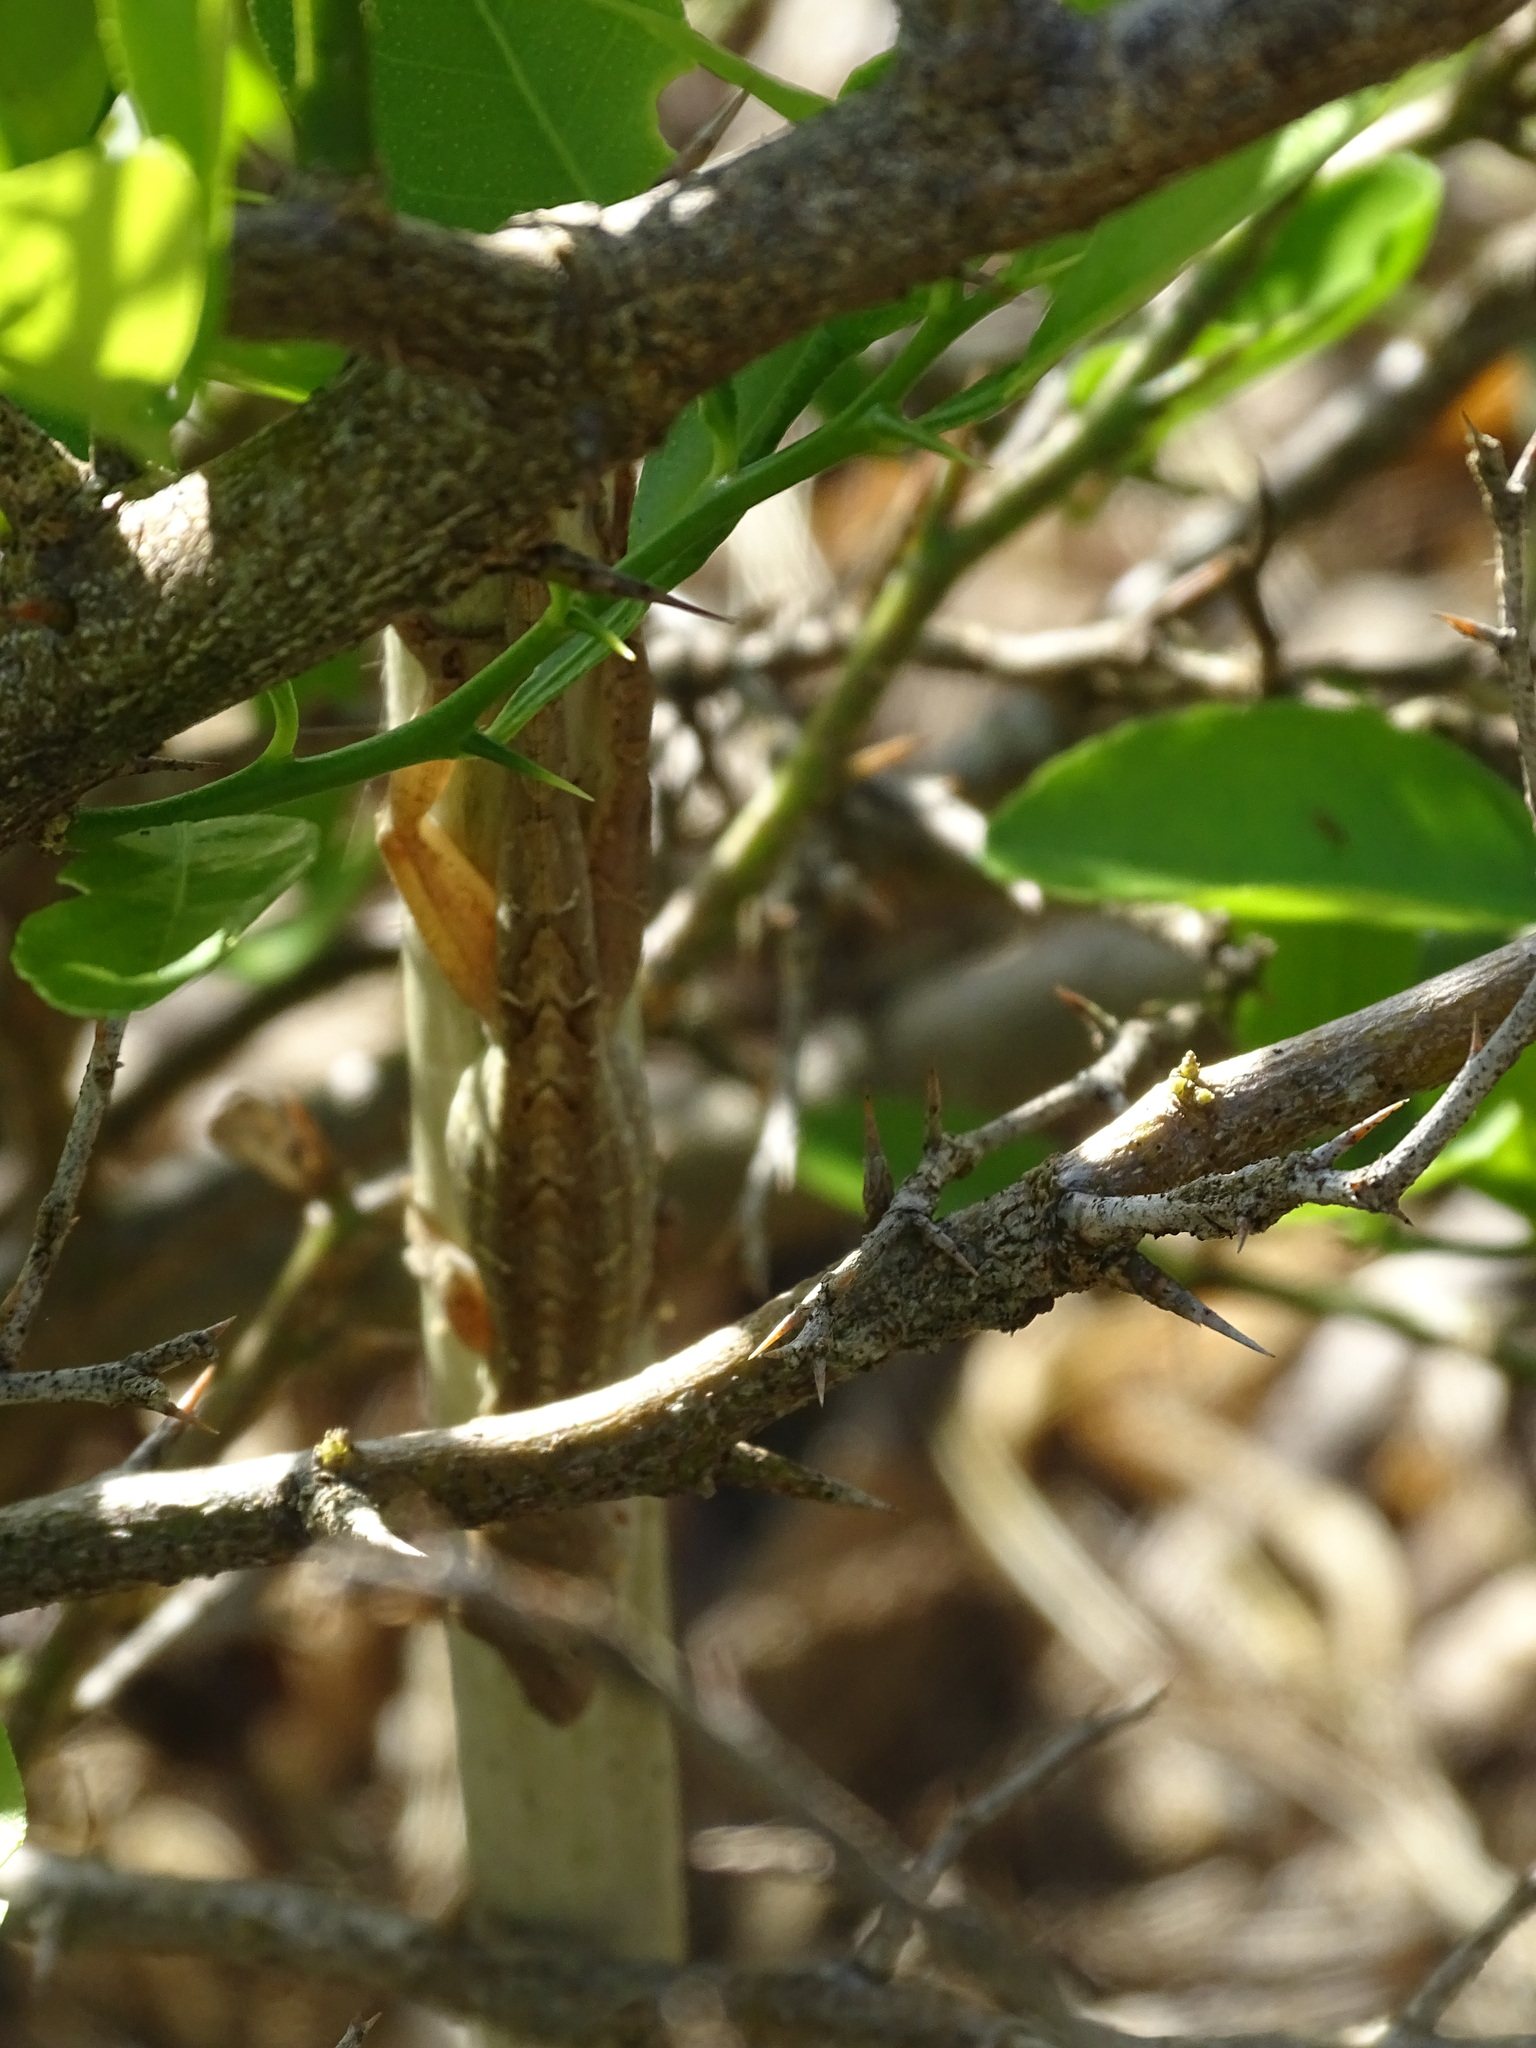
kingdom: Animalia
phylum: Chordata
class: Squamata
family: Dactyloidae
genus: Anolis
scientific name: Anolis sagrei
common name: Brown anole
